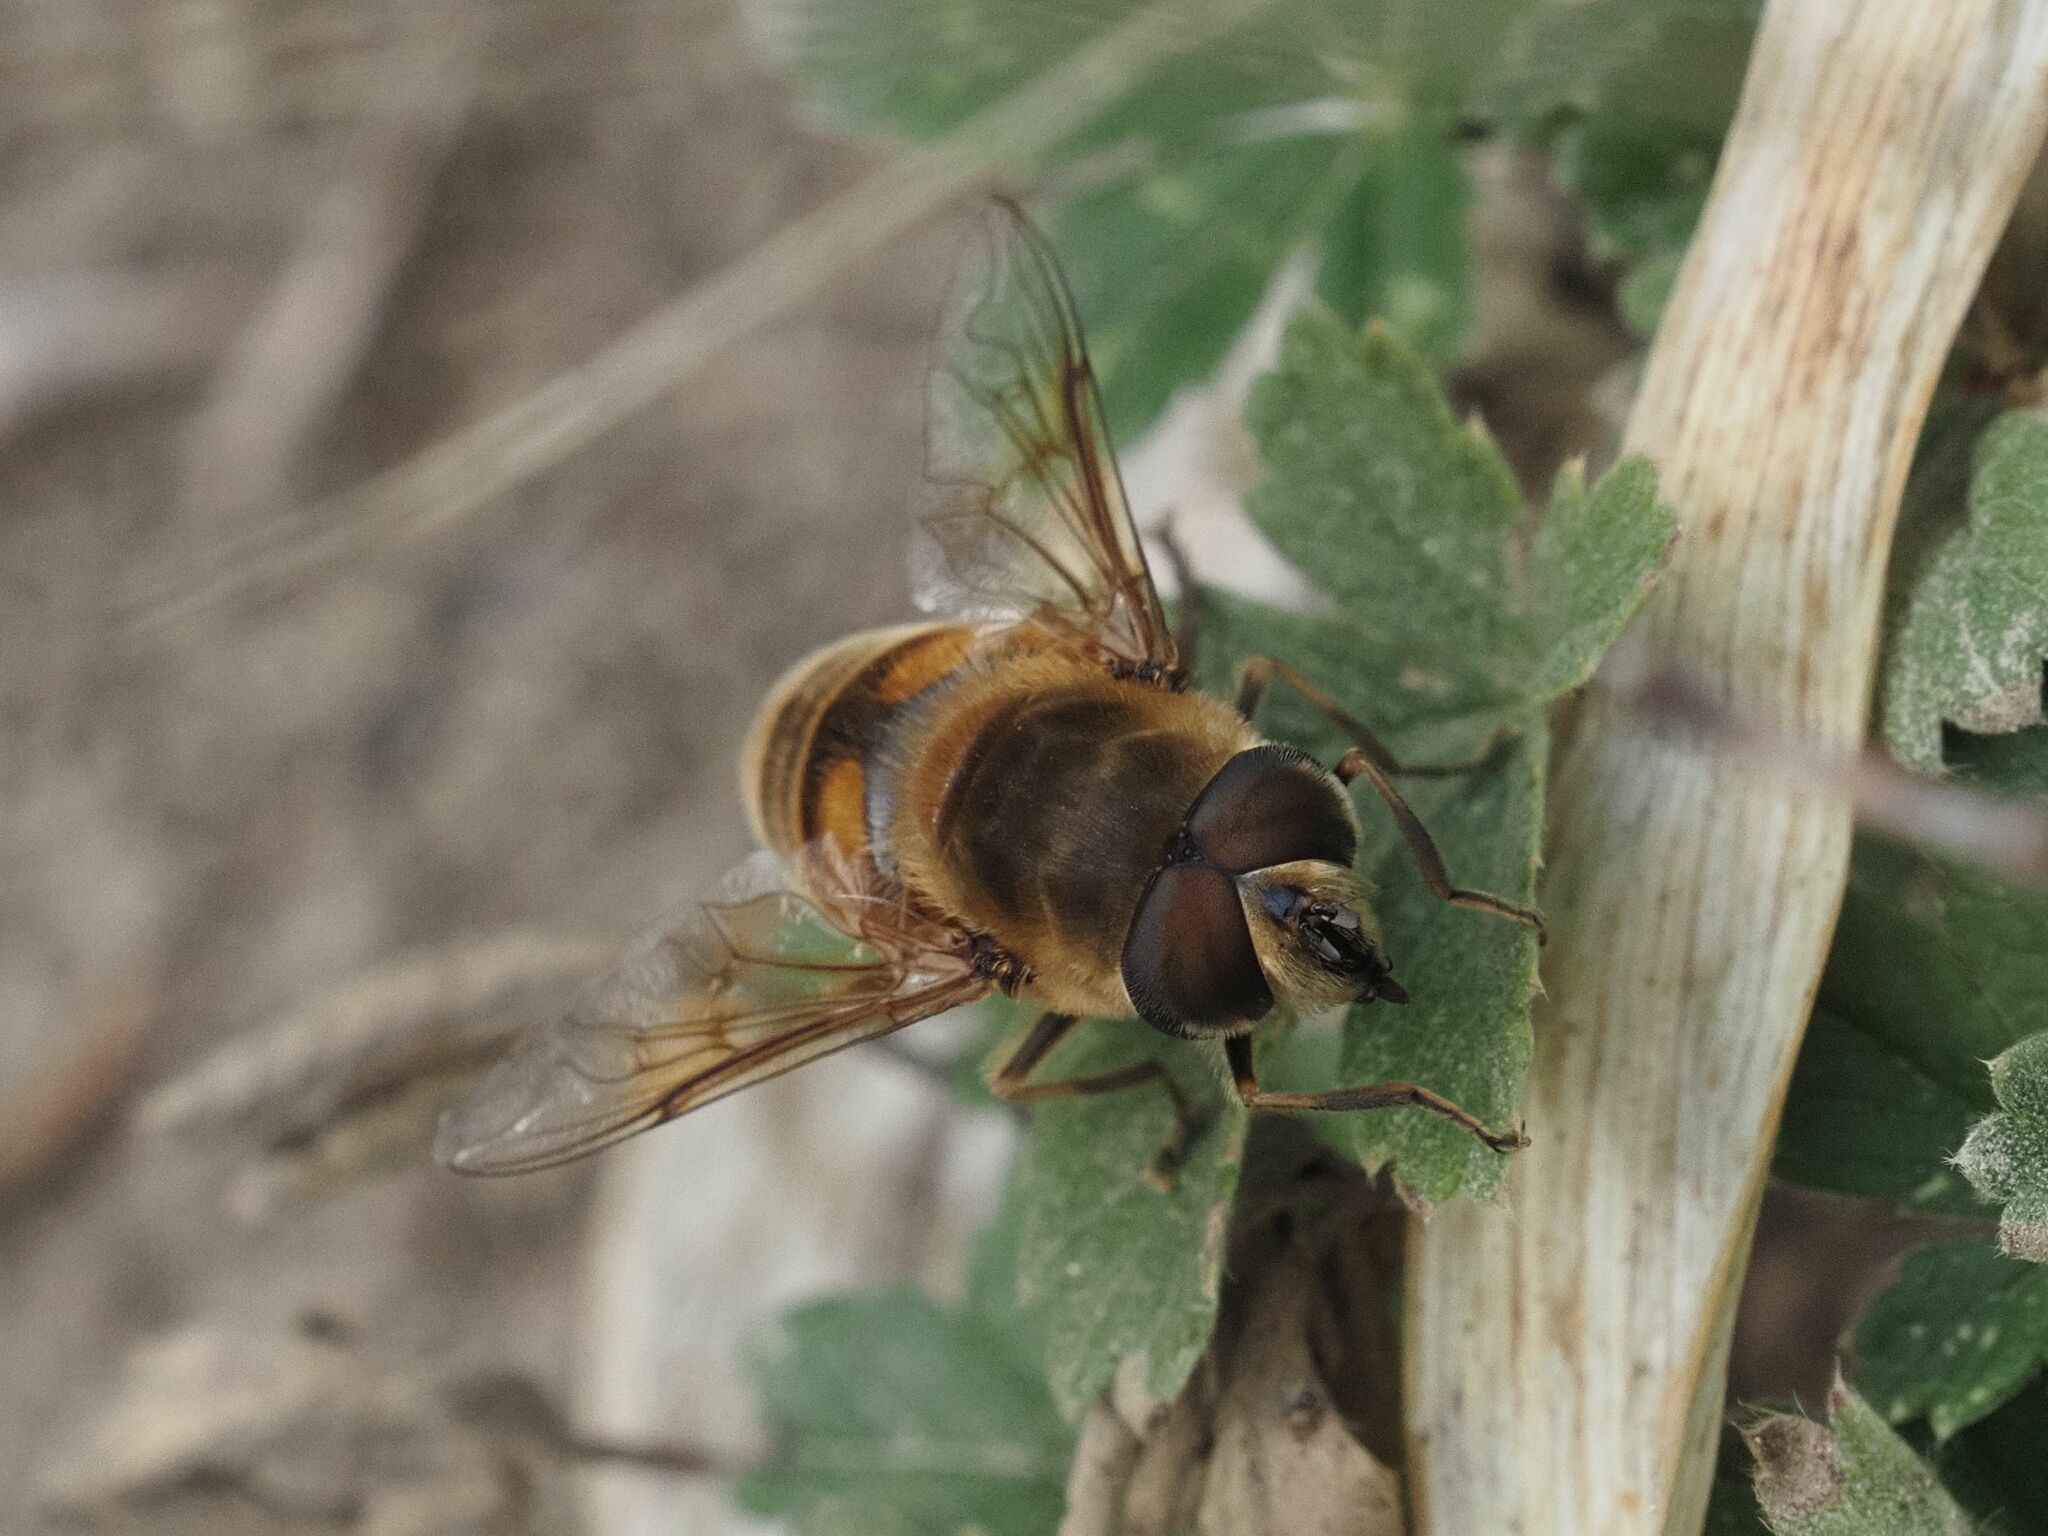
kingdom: Animalia
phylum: Arthropoda
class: Insecta
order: Diptera
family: Syrphidae
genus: Eristalis
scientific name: Eristalis tenax
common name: Drone fly
